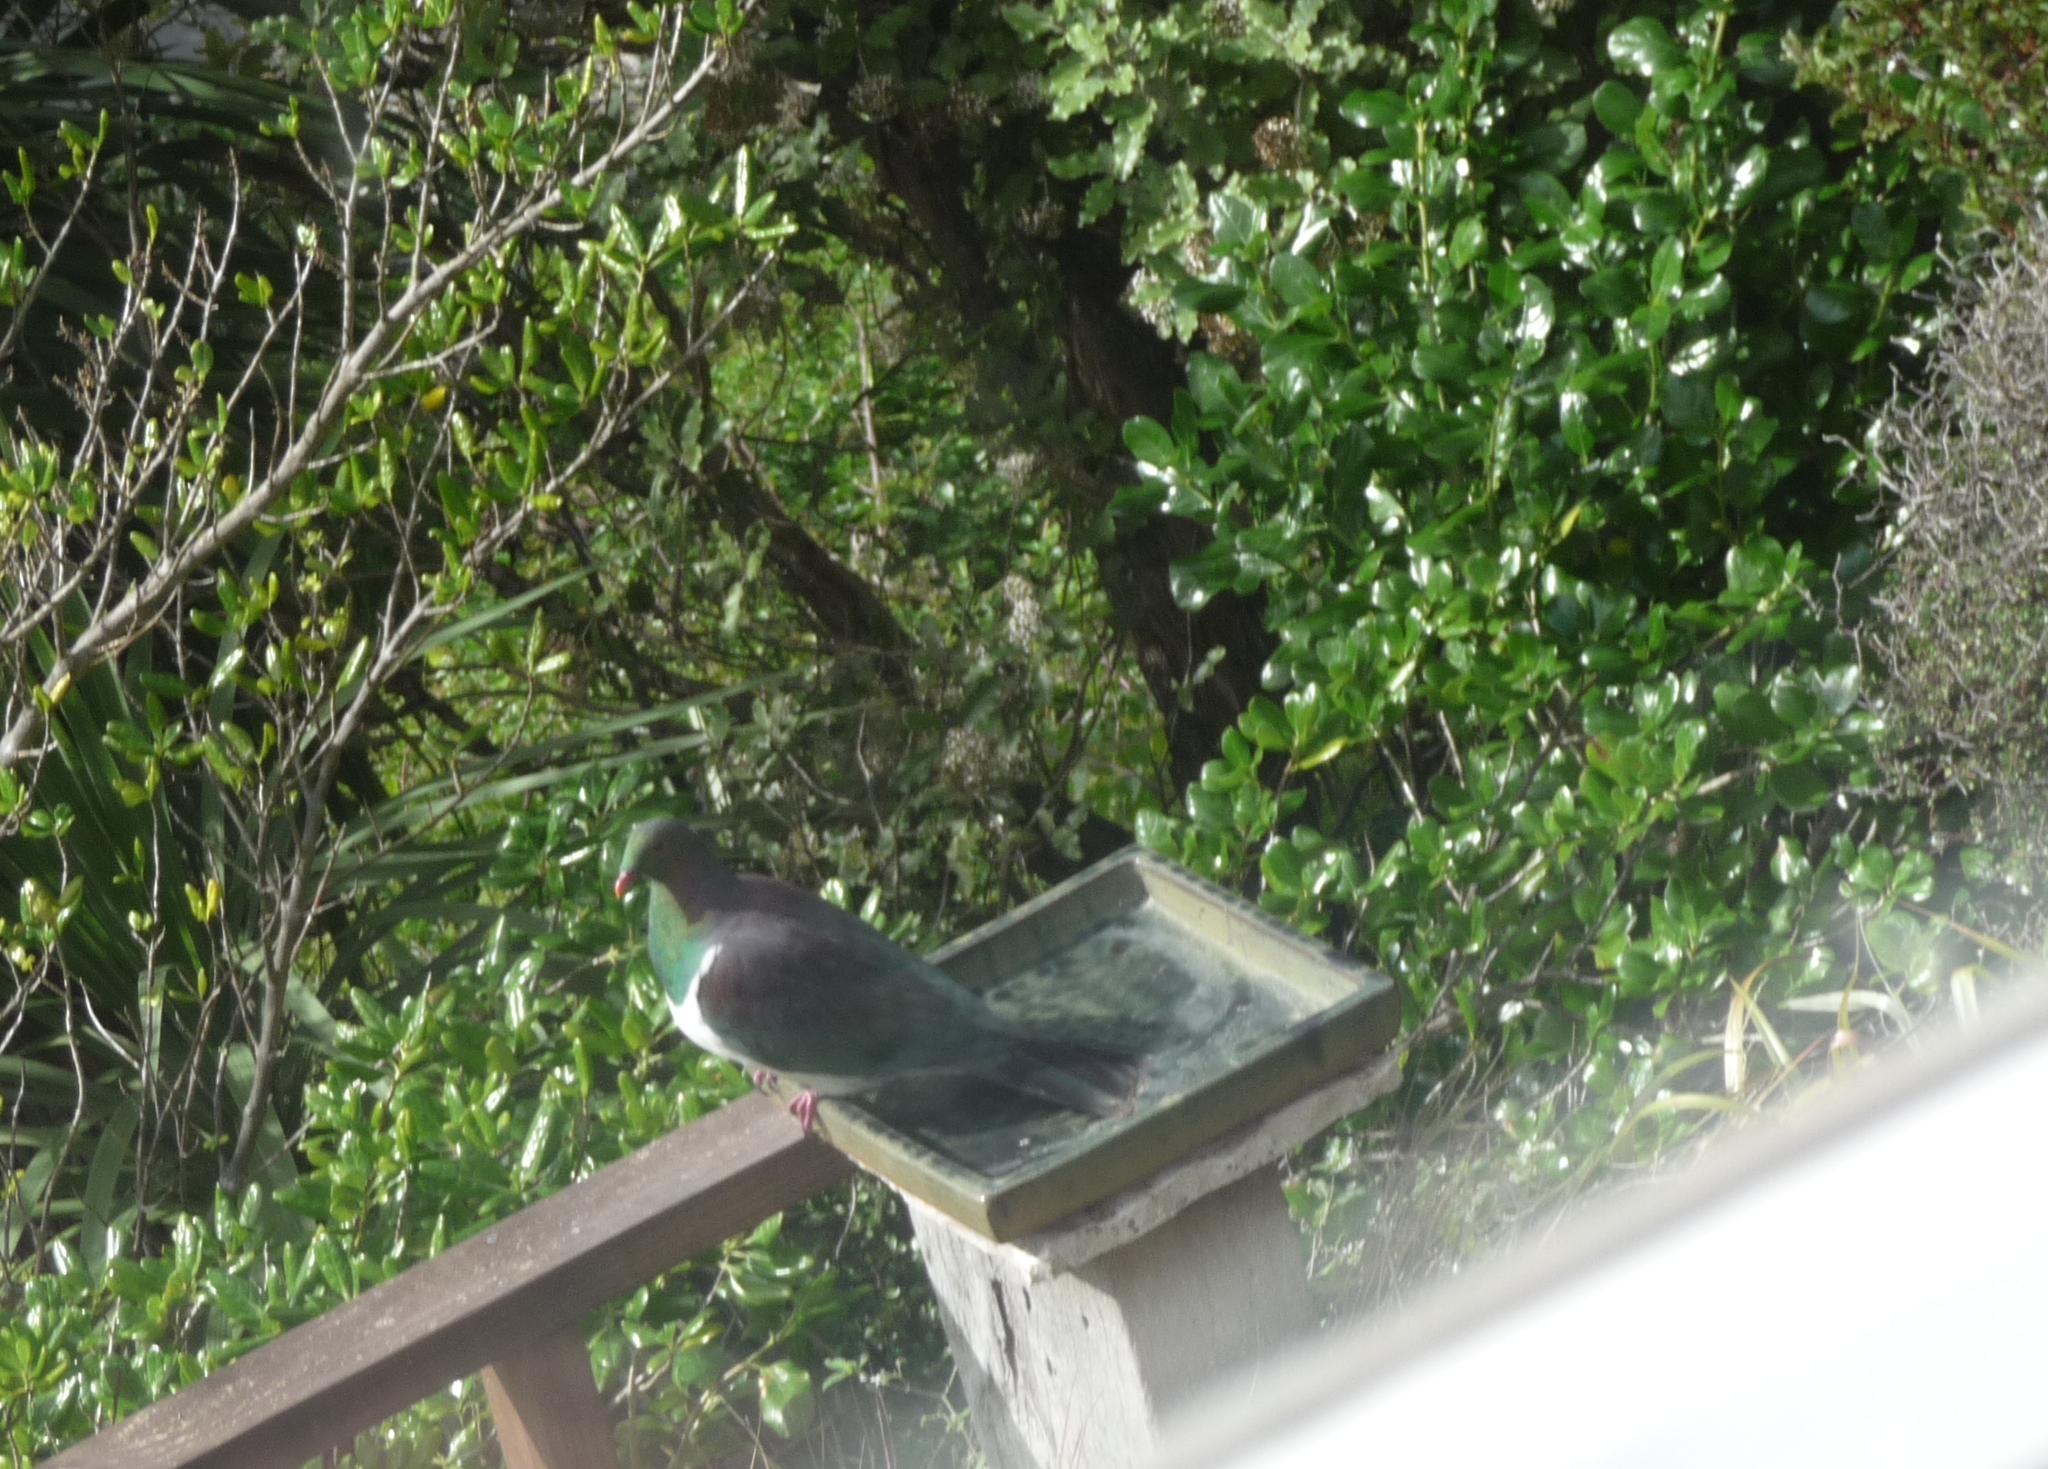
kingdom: Animalia
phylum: Chordata
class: Aves
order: Columbiformes
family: Columbidae
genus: Hemiphaga
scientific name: Hemiphaga novaeseelandiae
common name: New zealand pigeon
